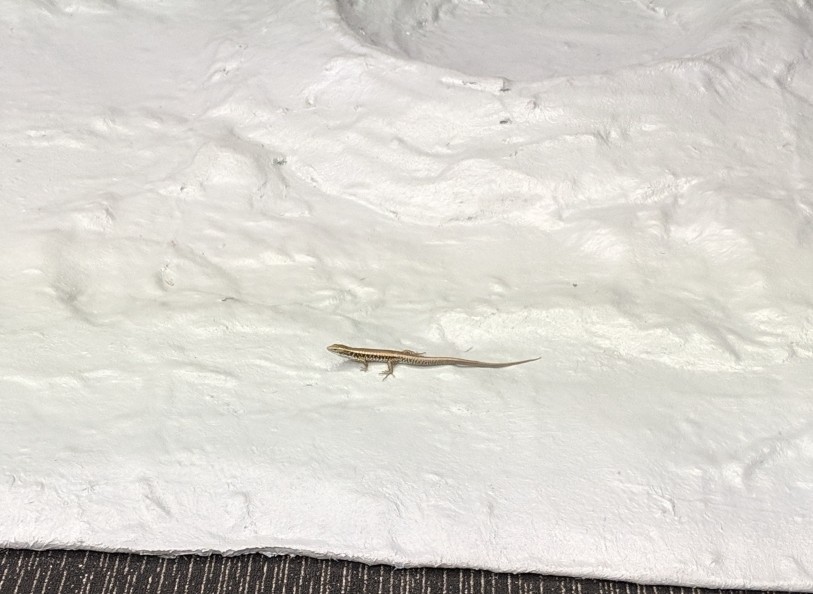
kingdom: Animalia
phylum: Chordata
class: Squamata
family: Scincidae
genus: Eulamprus
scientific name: Eulamprus quoyii
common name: Eastern water skink
